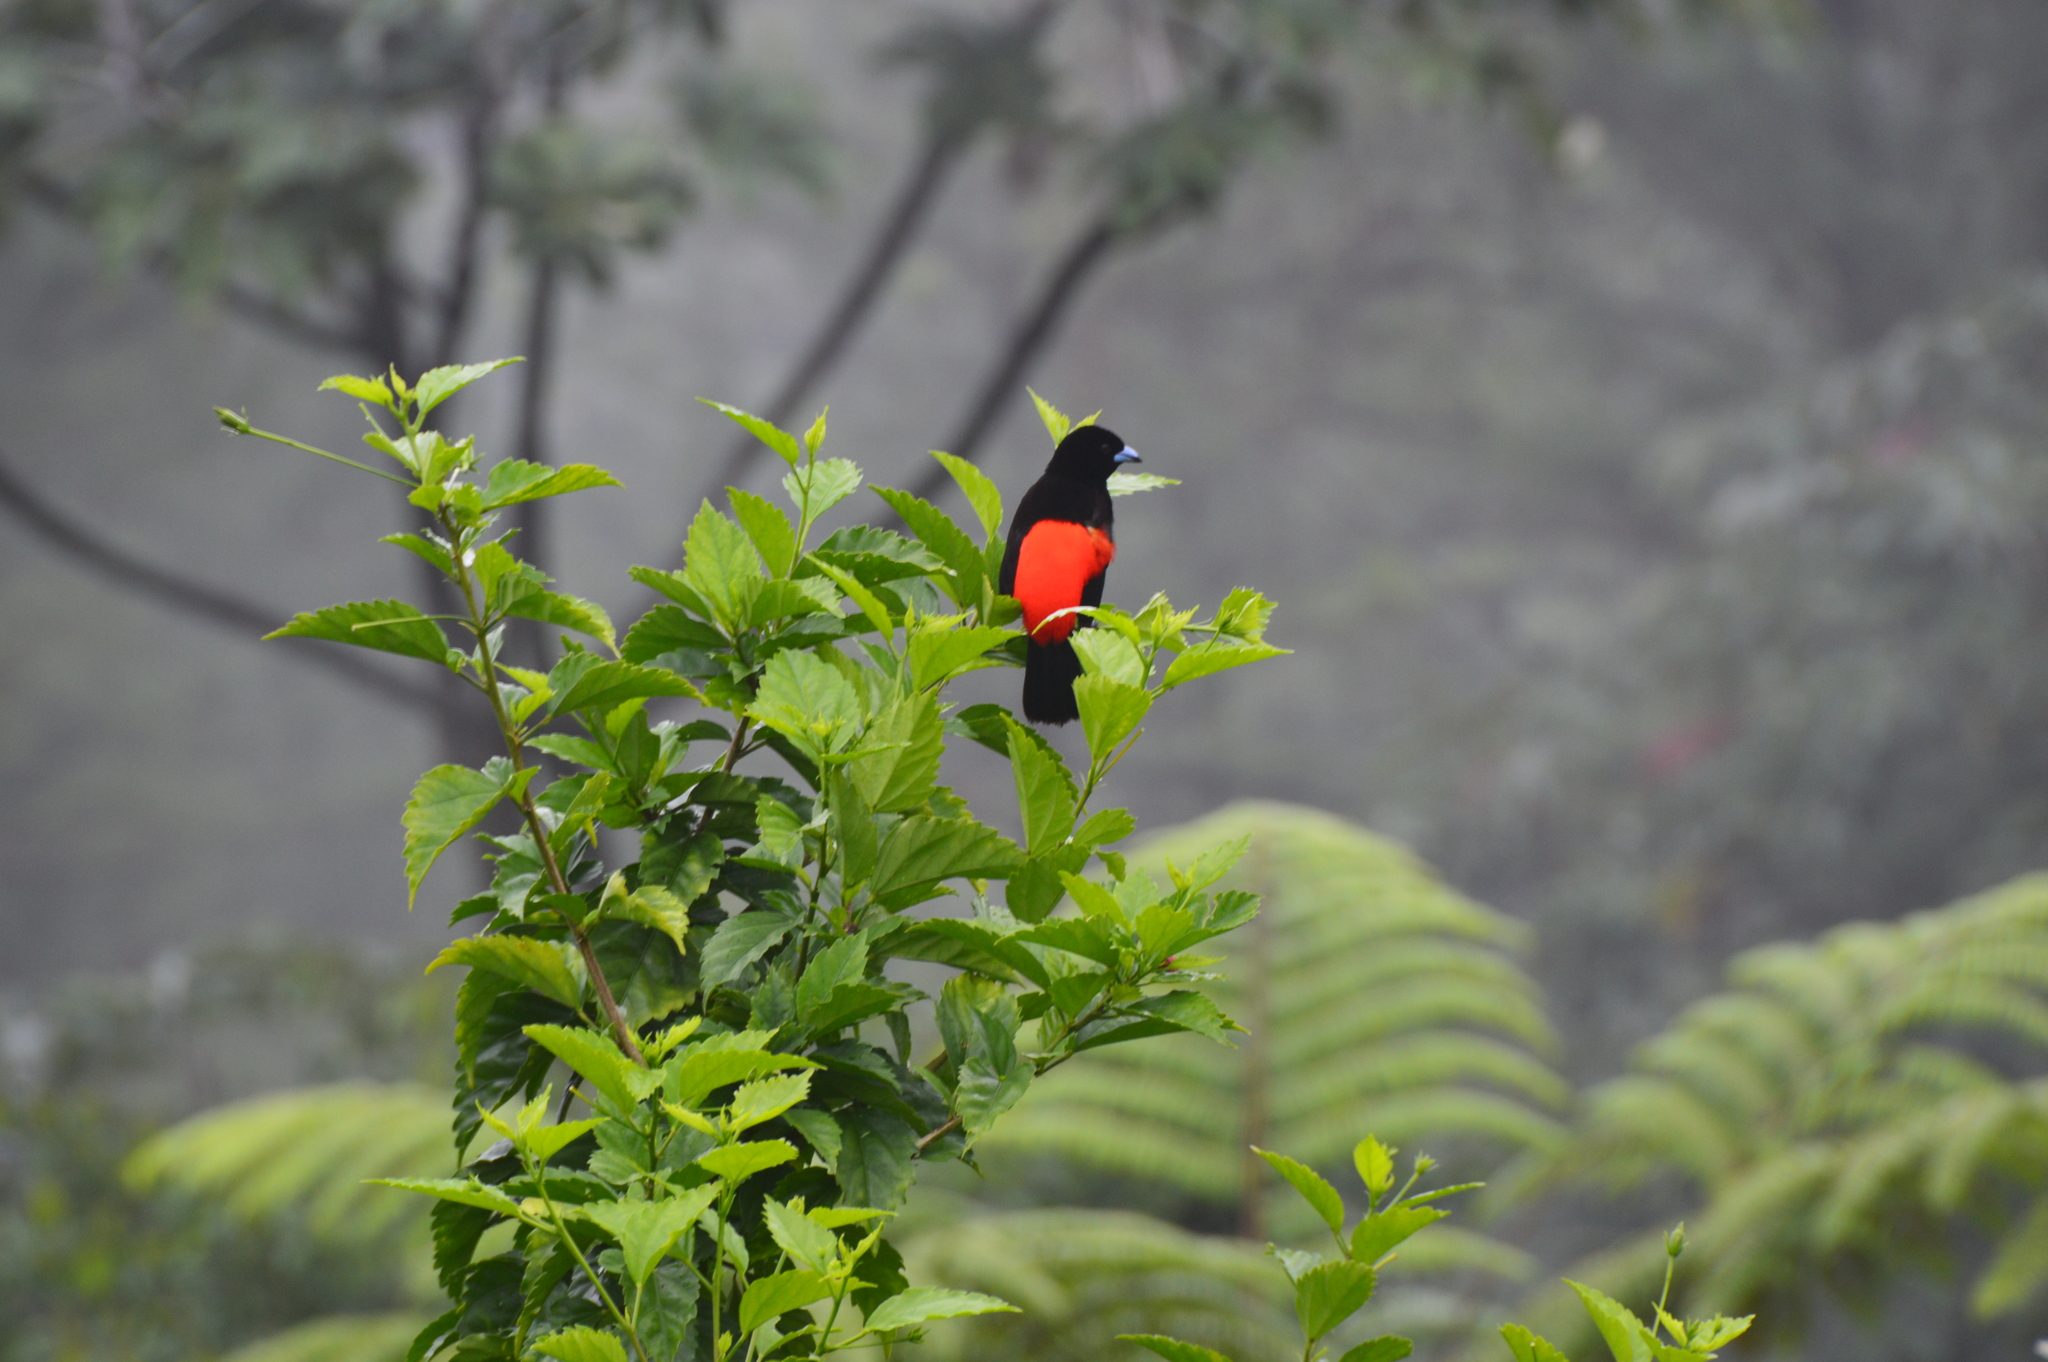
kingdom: Animalia
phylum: Chordata
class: Aves
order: Passeriformes
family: Thraupidae
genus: Ramphocelus
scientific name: Ramphocelus passerinii
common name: Passerini's tanager
